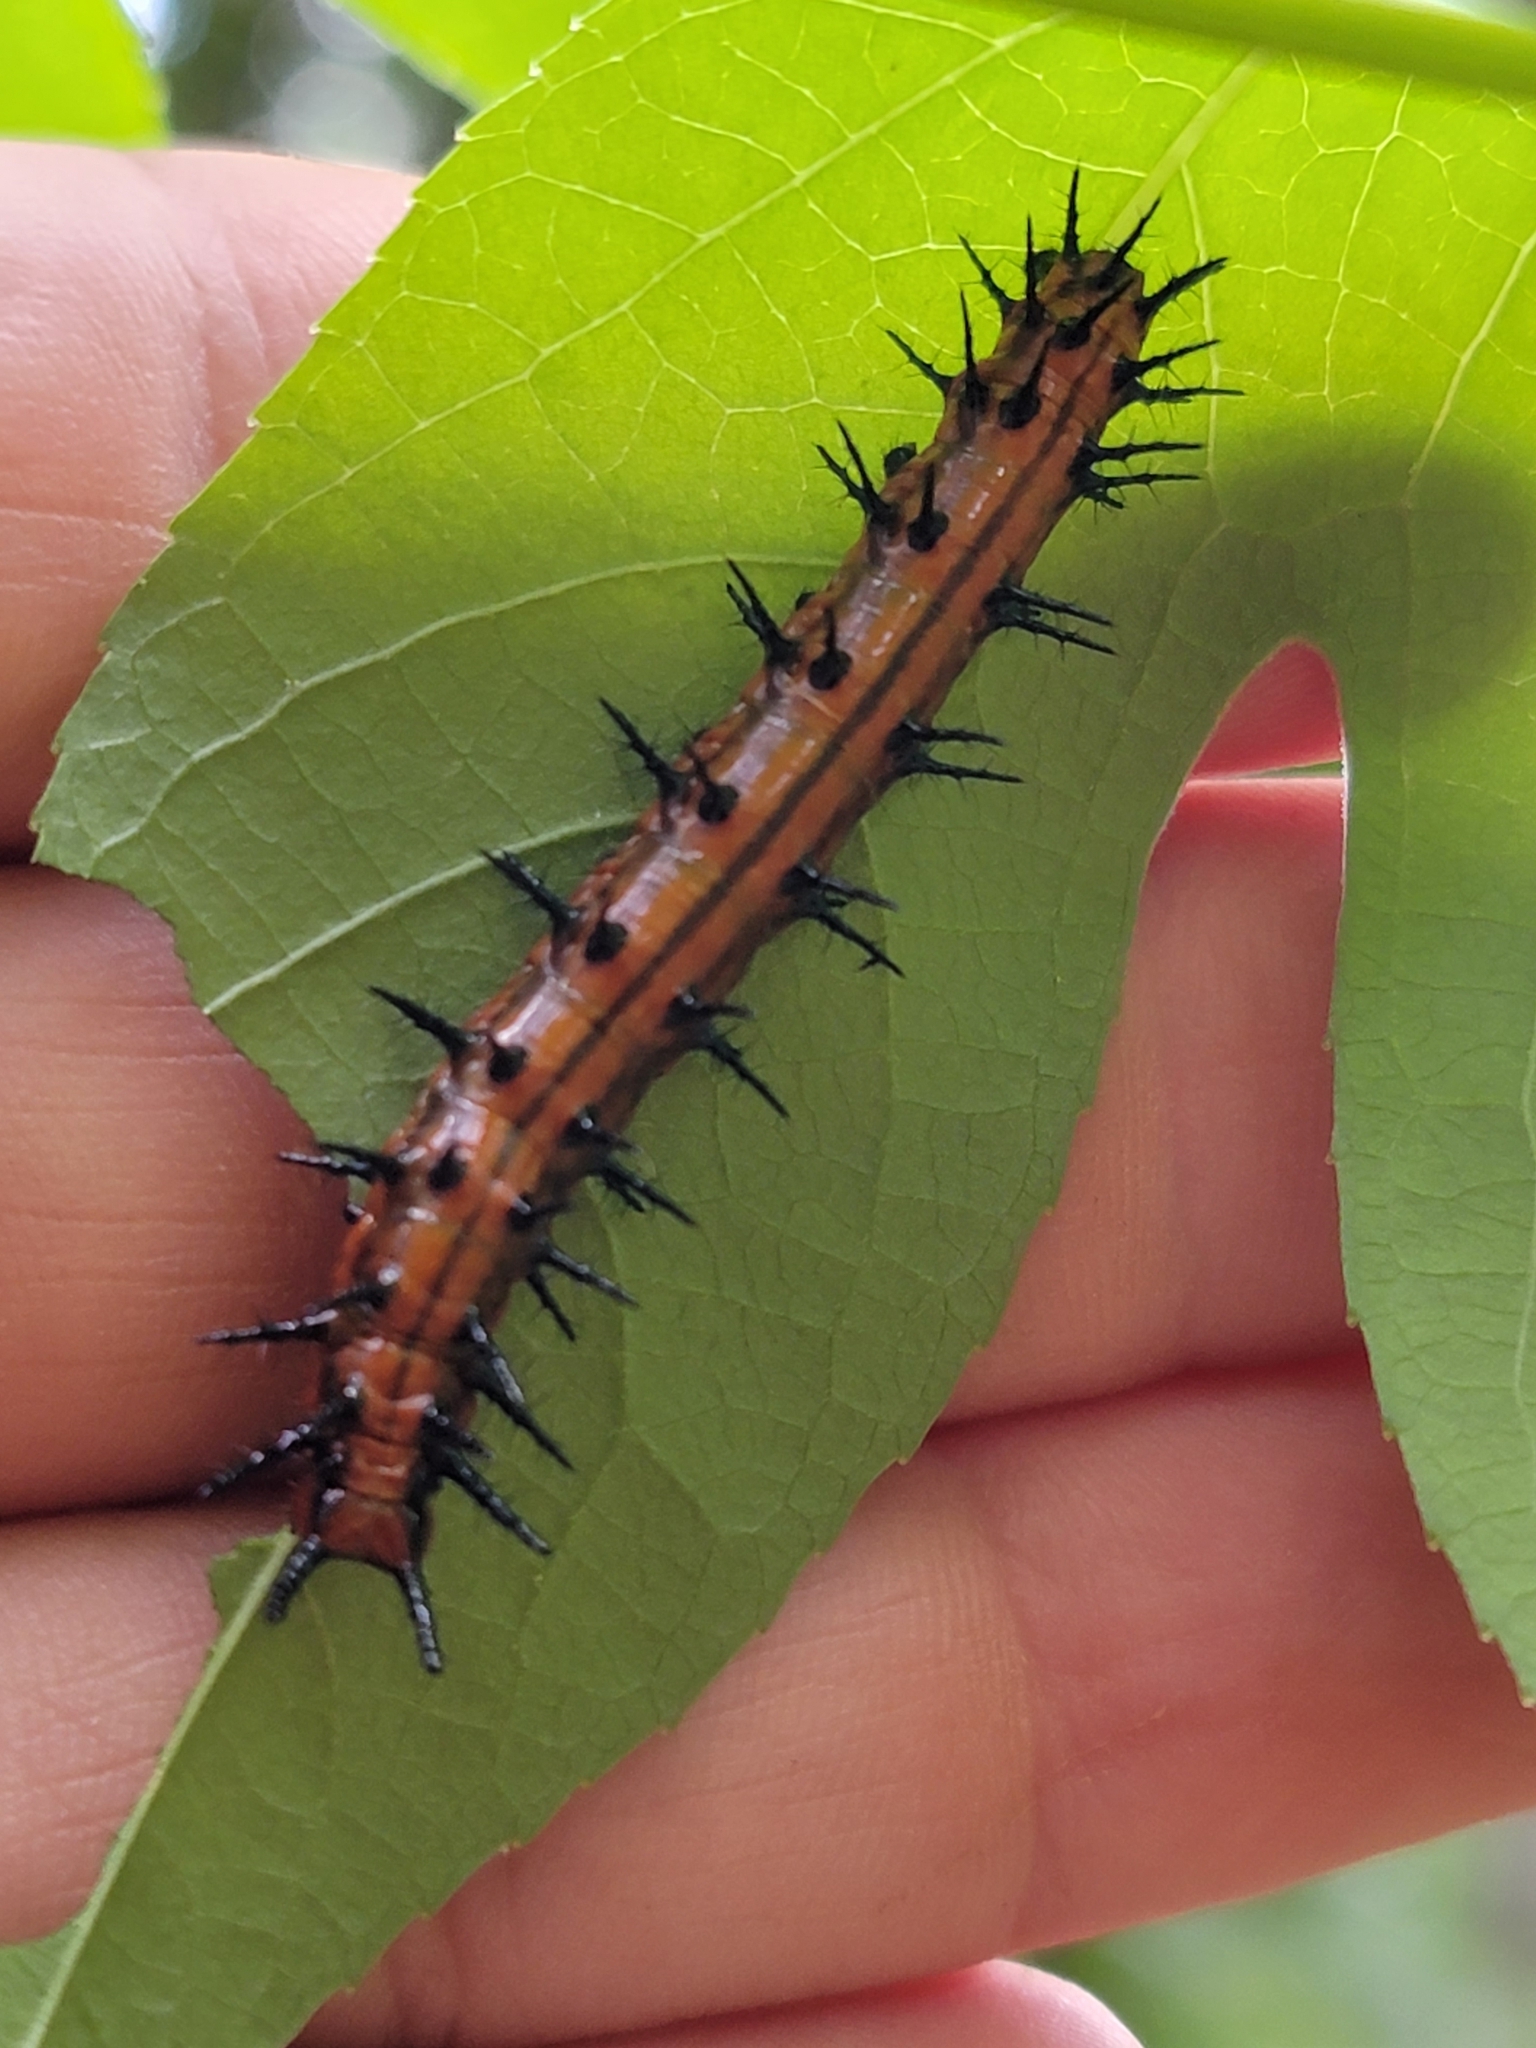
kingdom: Animalia
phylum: Arthropoda
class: Insecta
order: Lepidoptera
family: Nymphalidae
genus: Dione
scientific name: Dione vanillae
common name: Gulf fritillary
